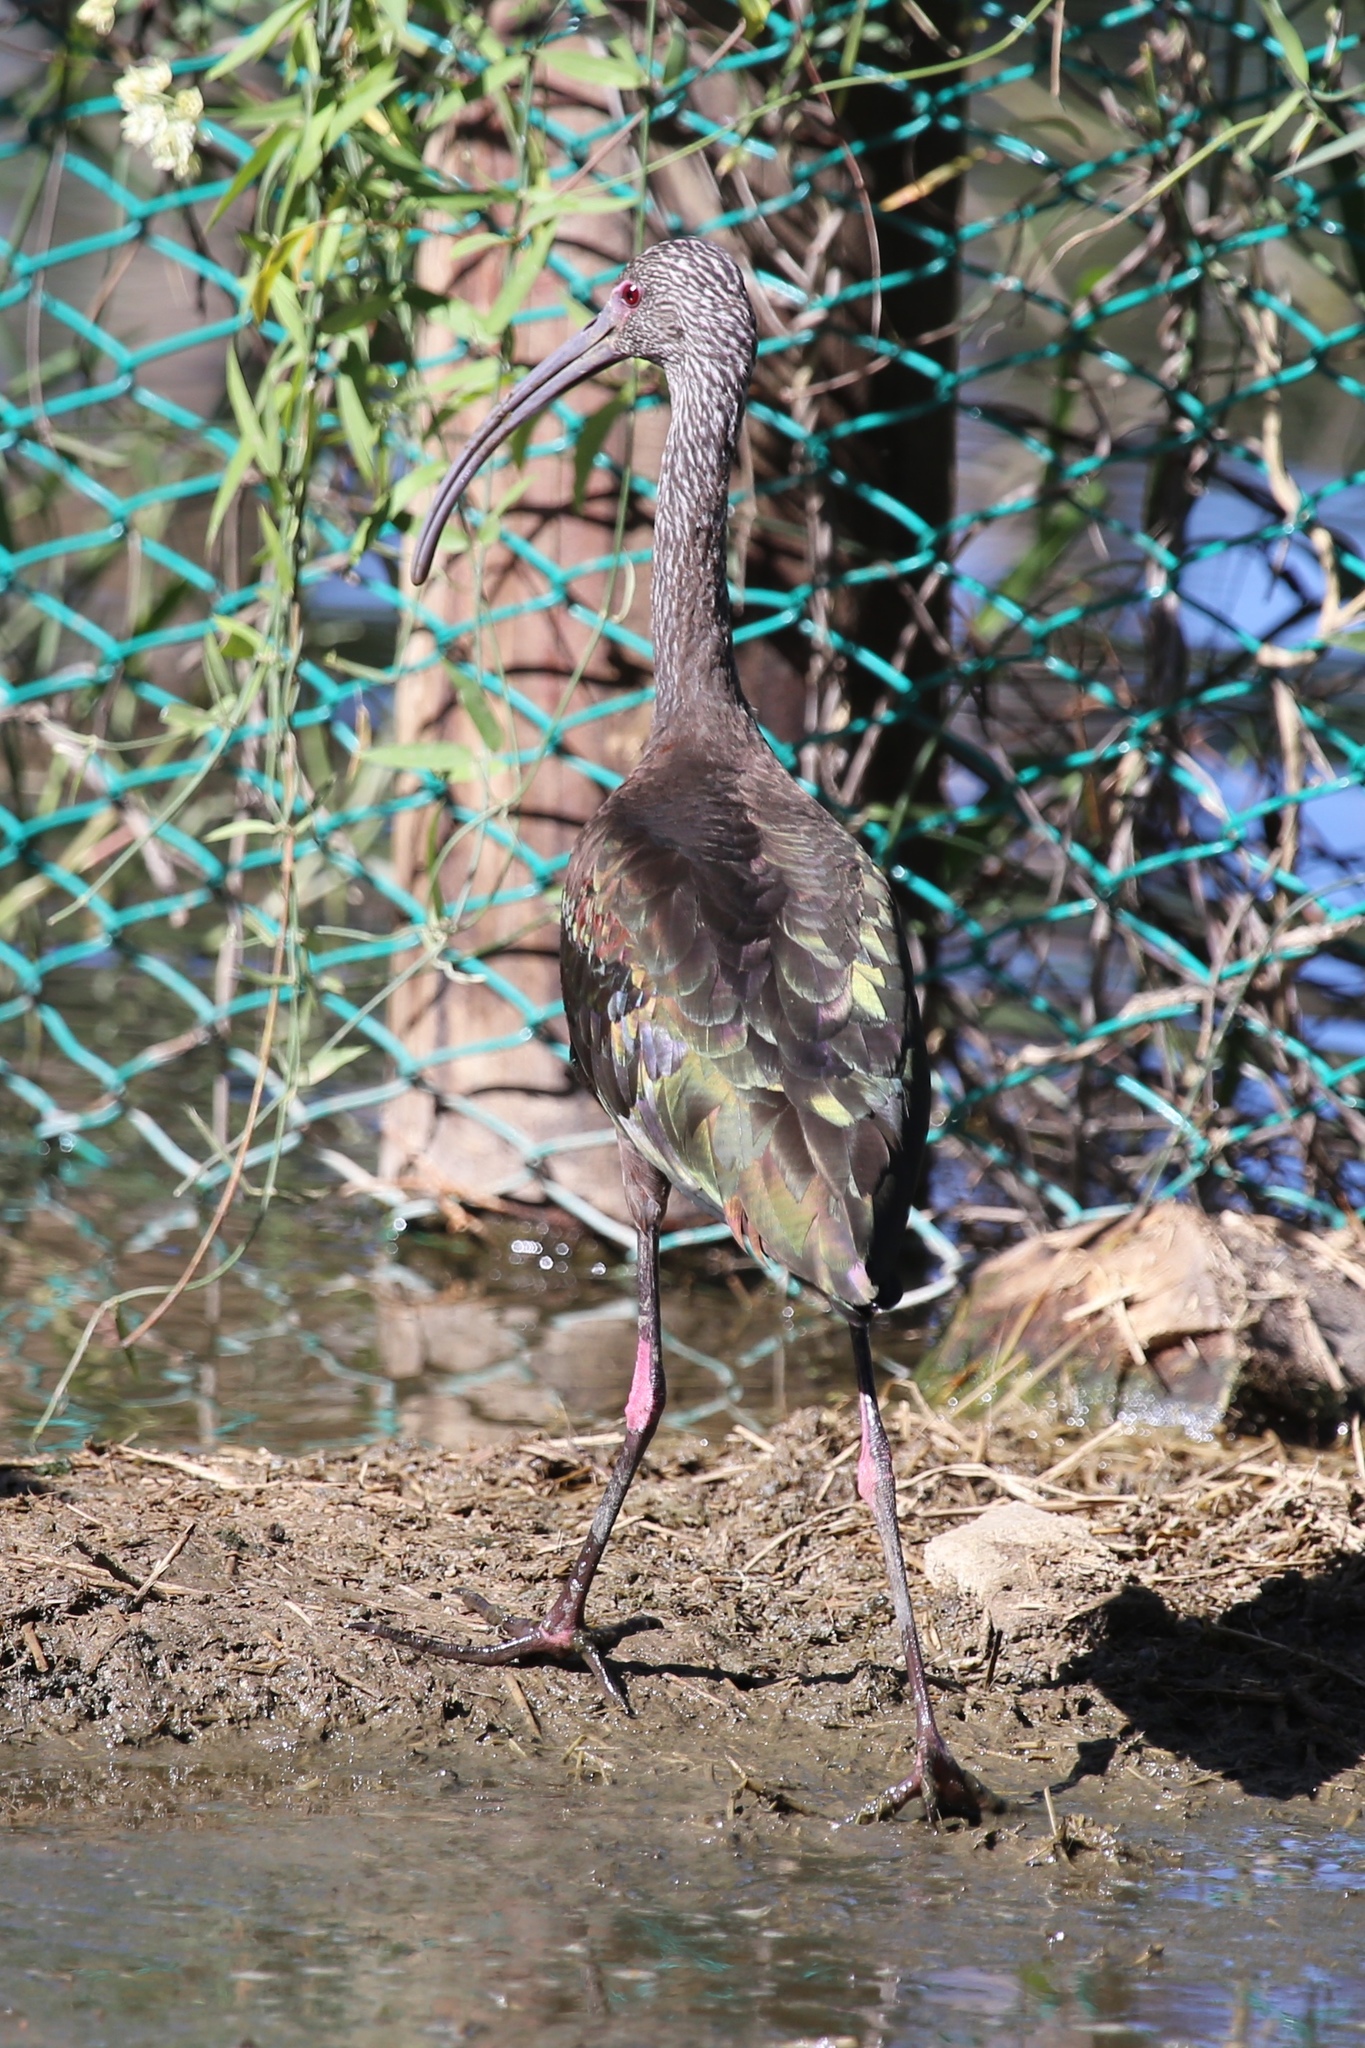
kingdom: Animalia
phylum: Chordata
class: Aves
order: Pelecaniformes
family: Threskiornithidae
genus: Plegadis
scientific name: Plegadis chihi
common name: White-faced ibis
